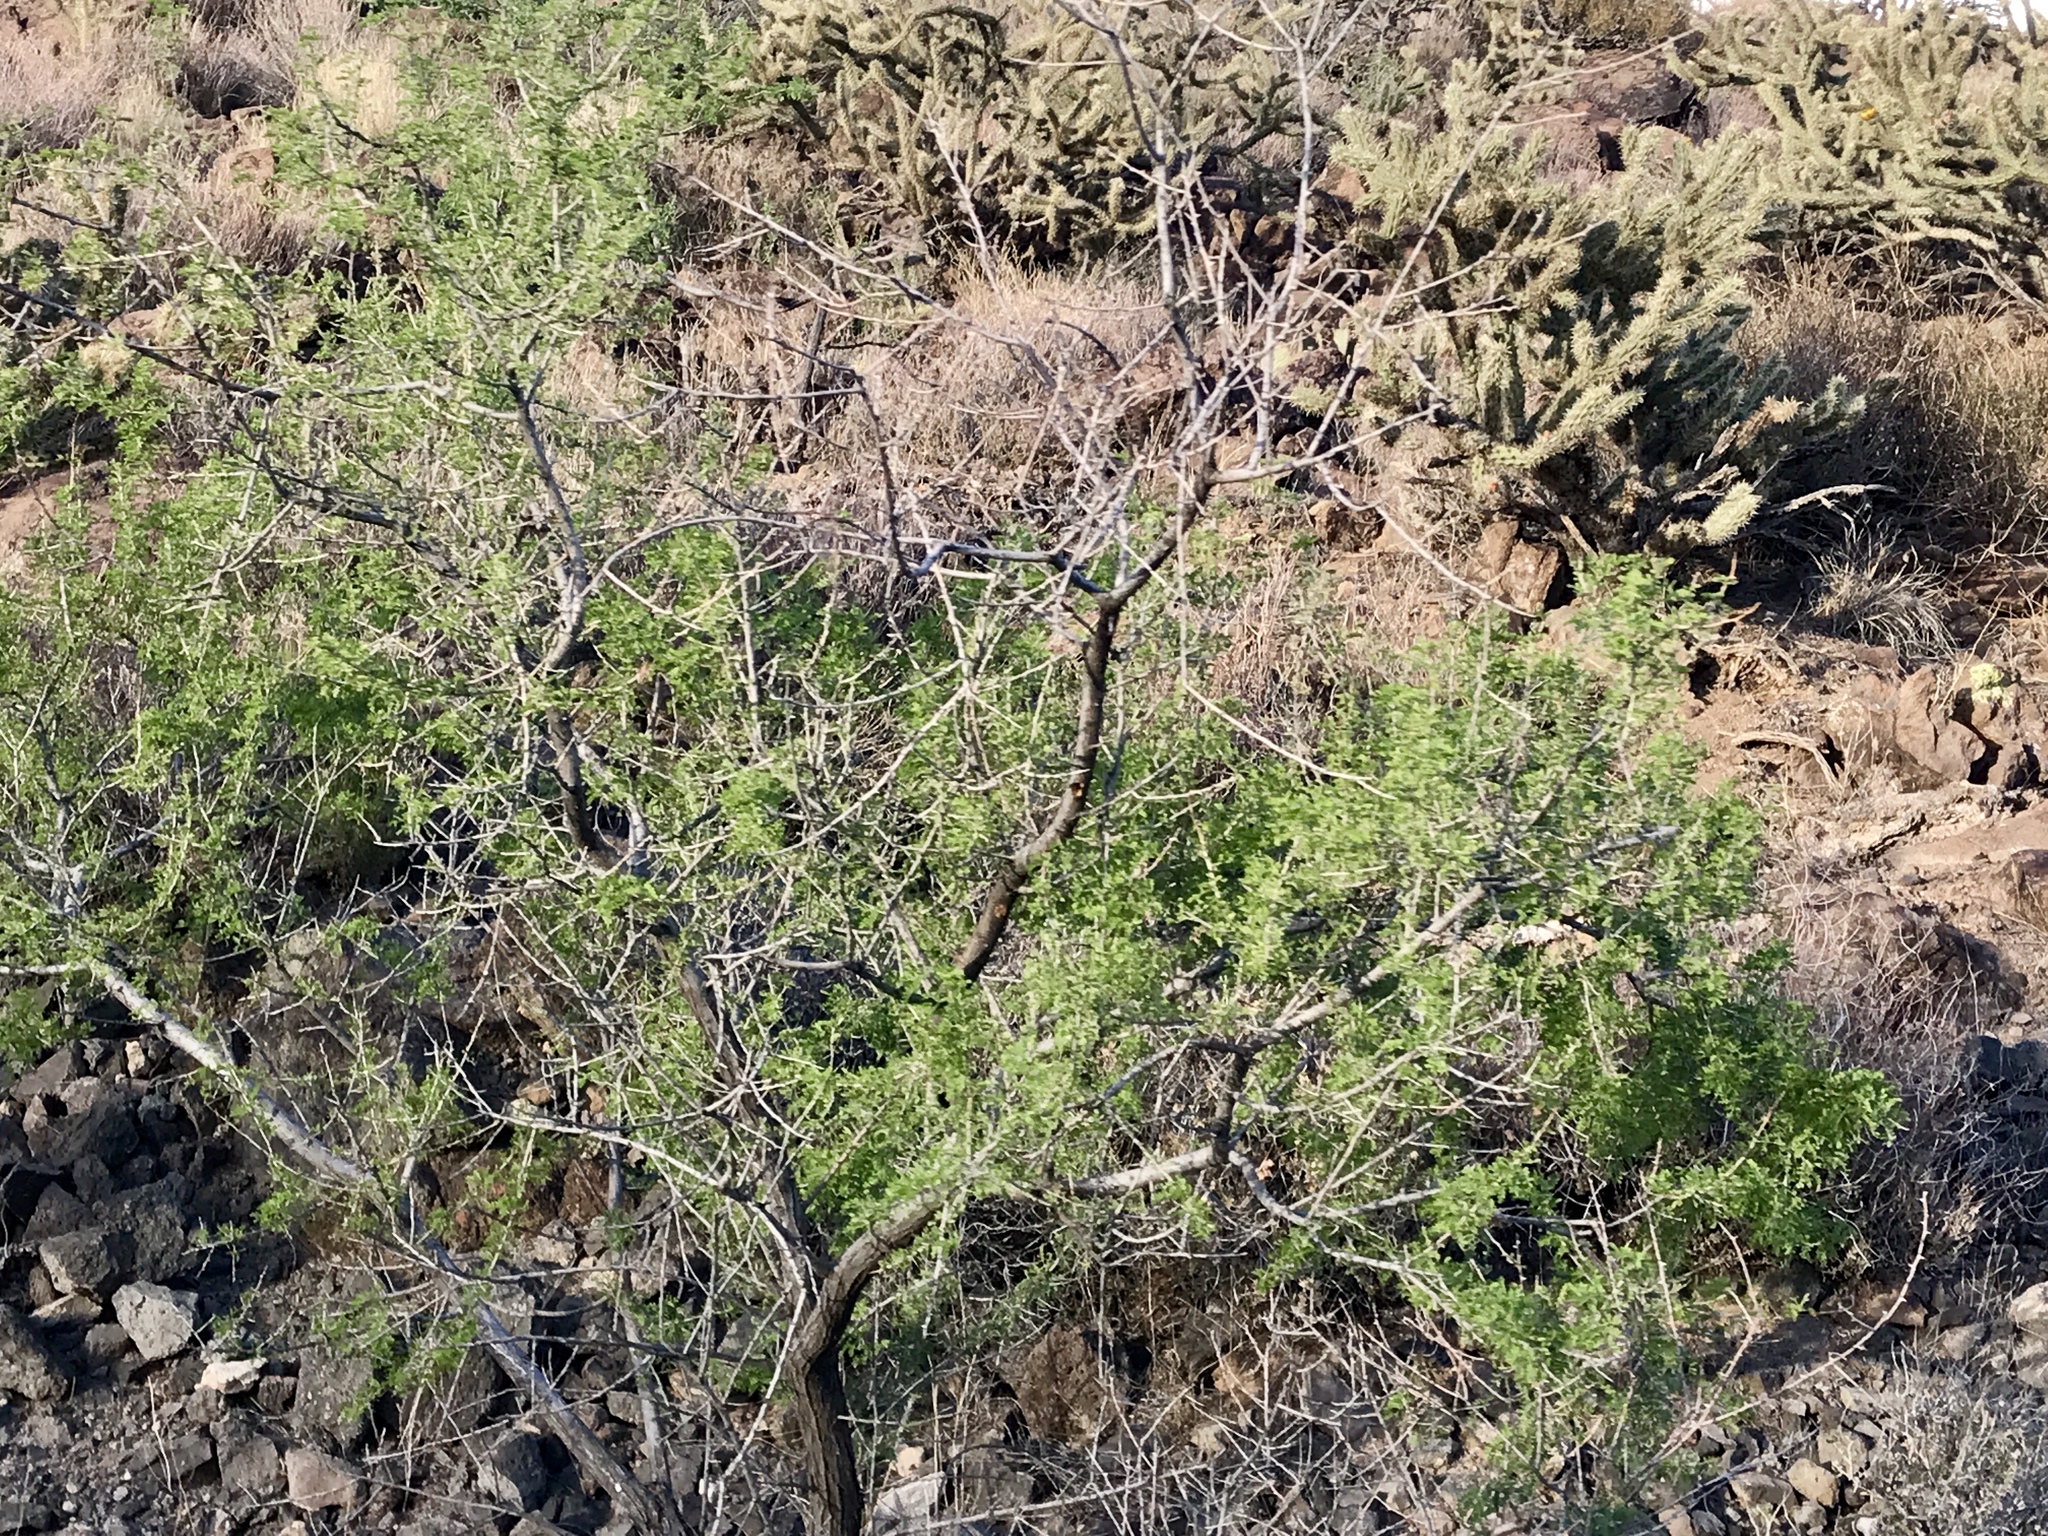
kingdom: Plantae
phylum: Tracheophyta
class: Magnoliopsida
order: Fabales
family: Fabaceae
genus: Senegalia
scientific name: Senegalia greggii
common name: Texas-mimosa
